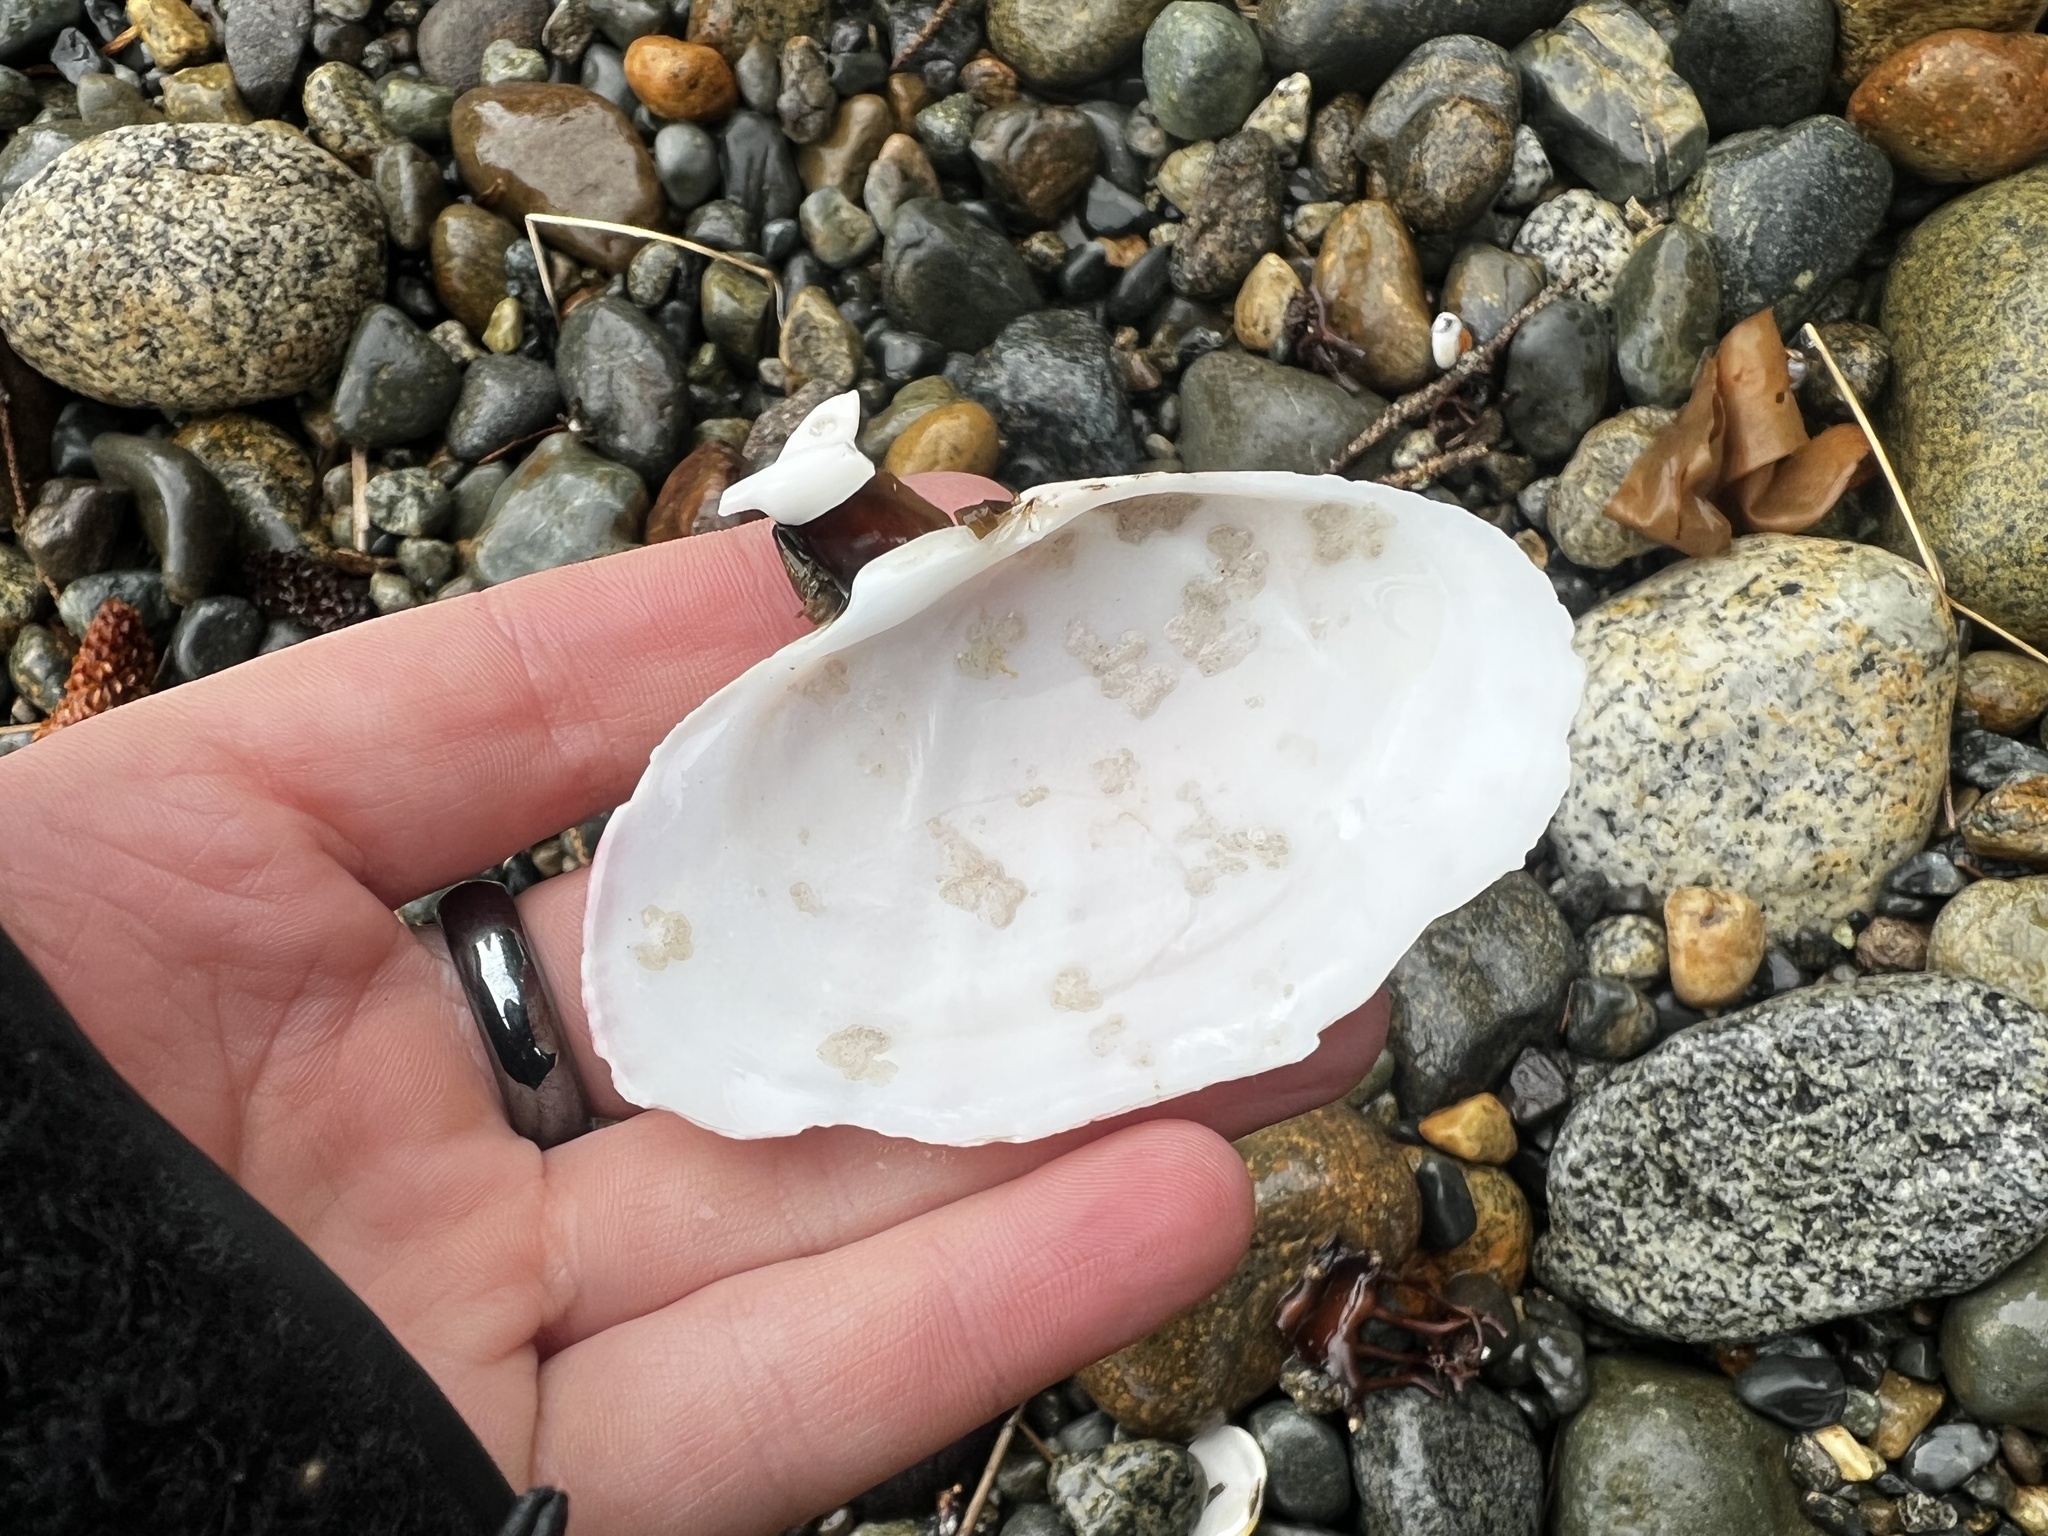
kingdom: Animalia
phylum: Mollusca
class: Bivalvia
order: Cardiida
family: Psammobiidae
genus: Gari
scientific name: Gari californica
